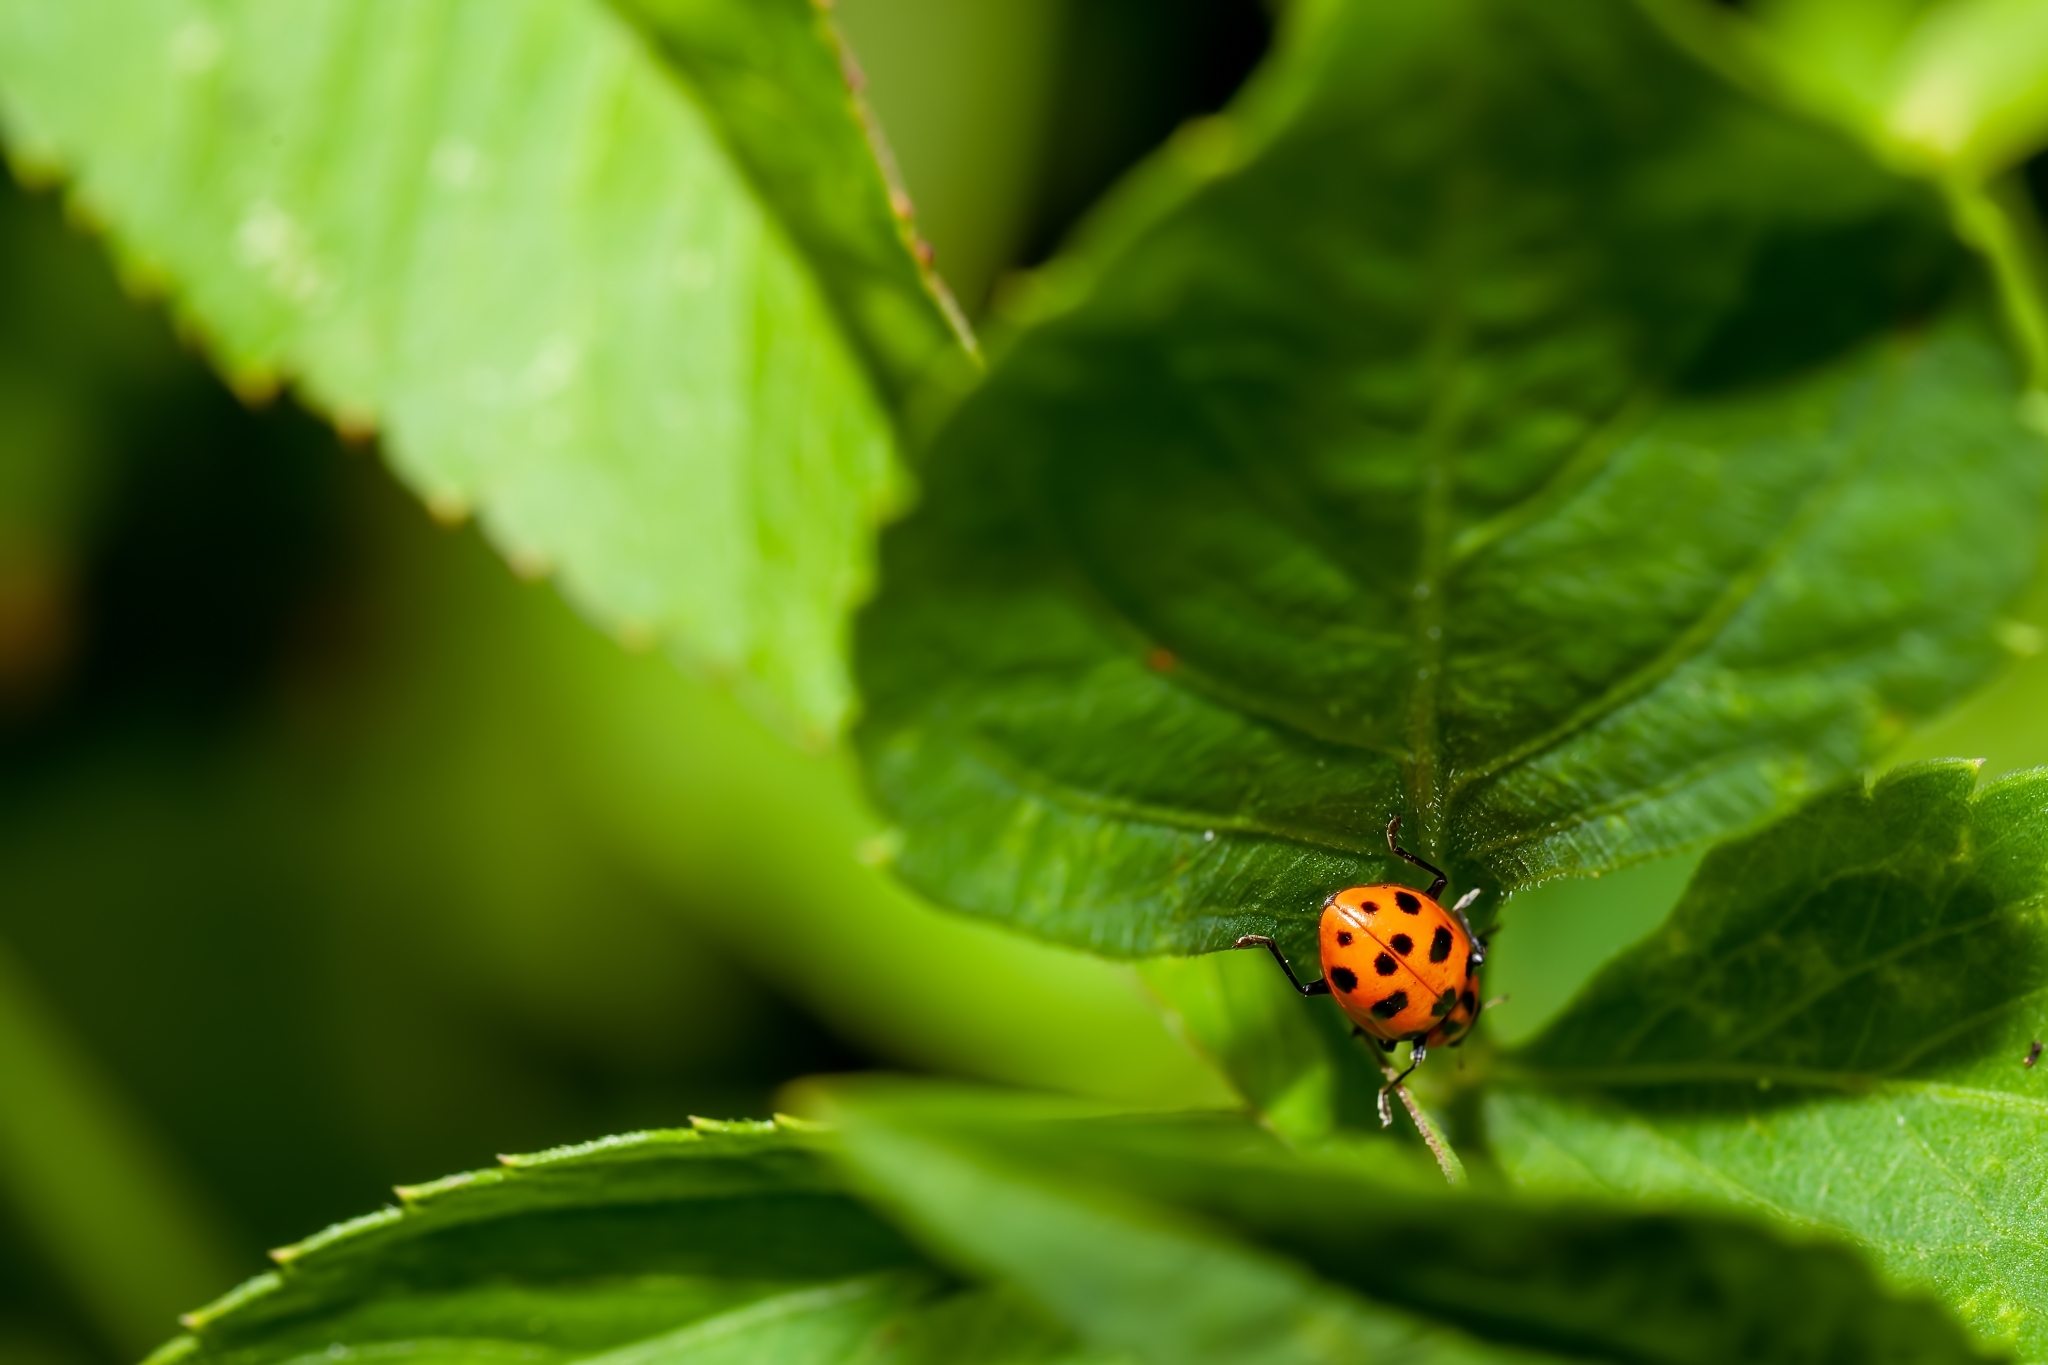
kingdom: Animalia
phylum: Arthropoda
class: Insecta
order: Coleoptera
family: Coccinellidae
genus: Coleomegilla
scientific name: Coleomegilla maculata
